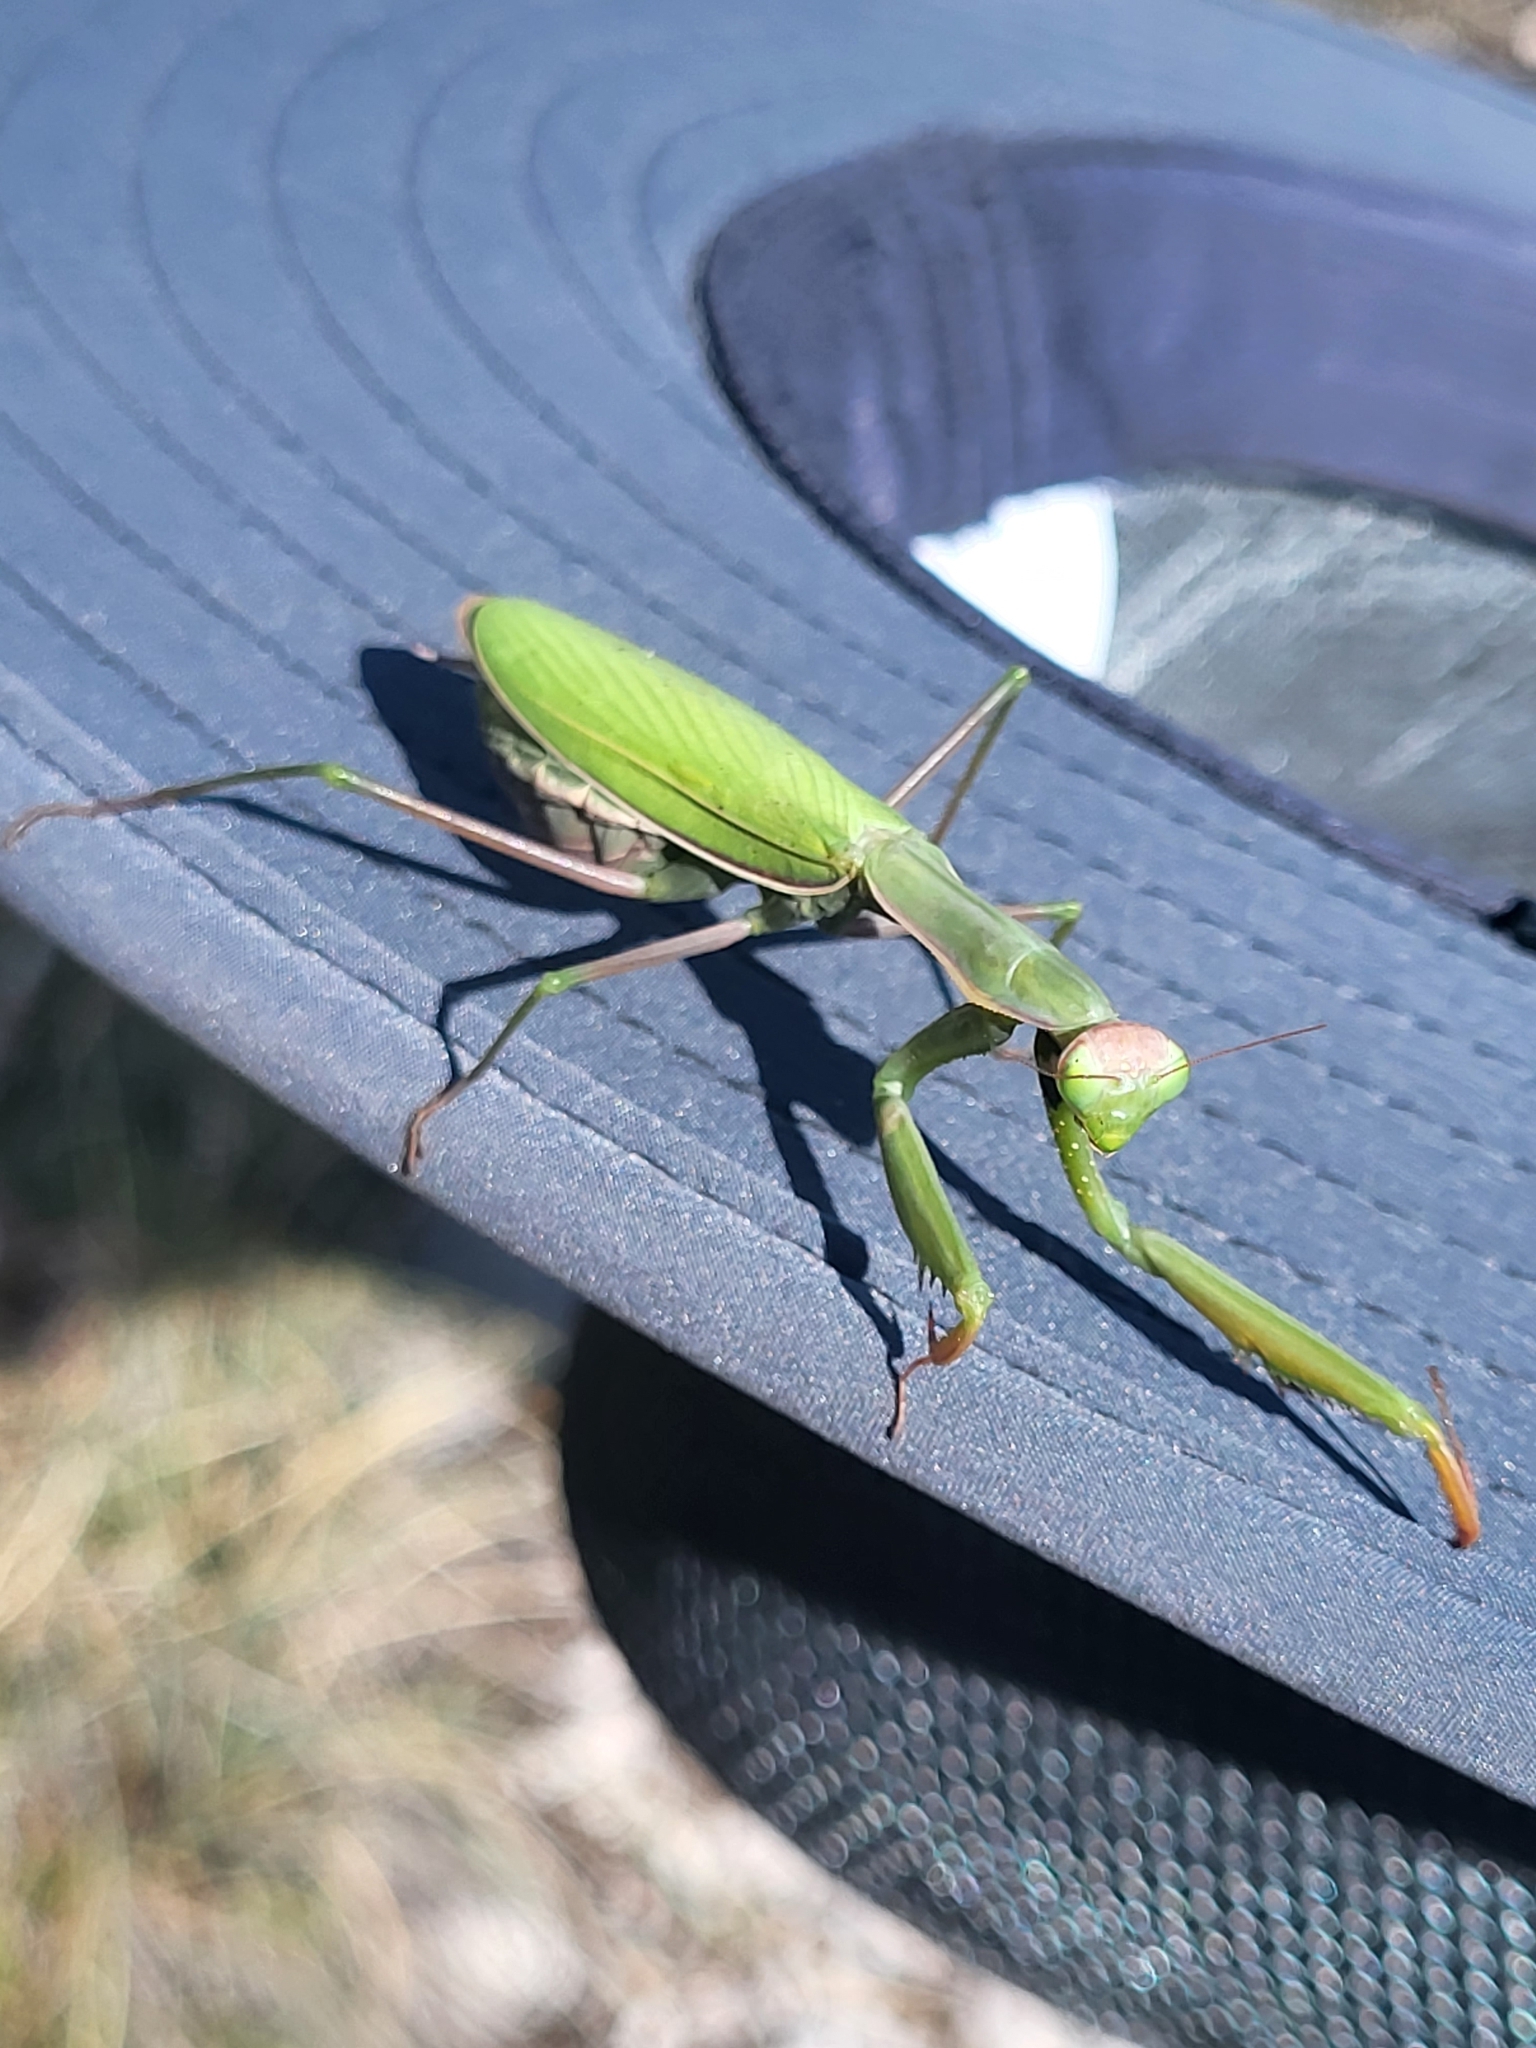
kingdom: Animalia
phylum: Arthropoda
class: Insecta
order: Mantodea
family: Mantidae
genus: Mantis
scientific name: Mantis religiosa
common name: Praying mantis
